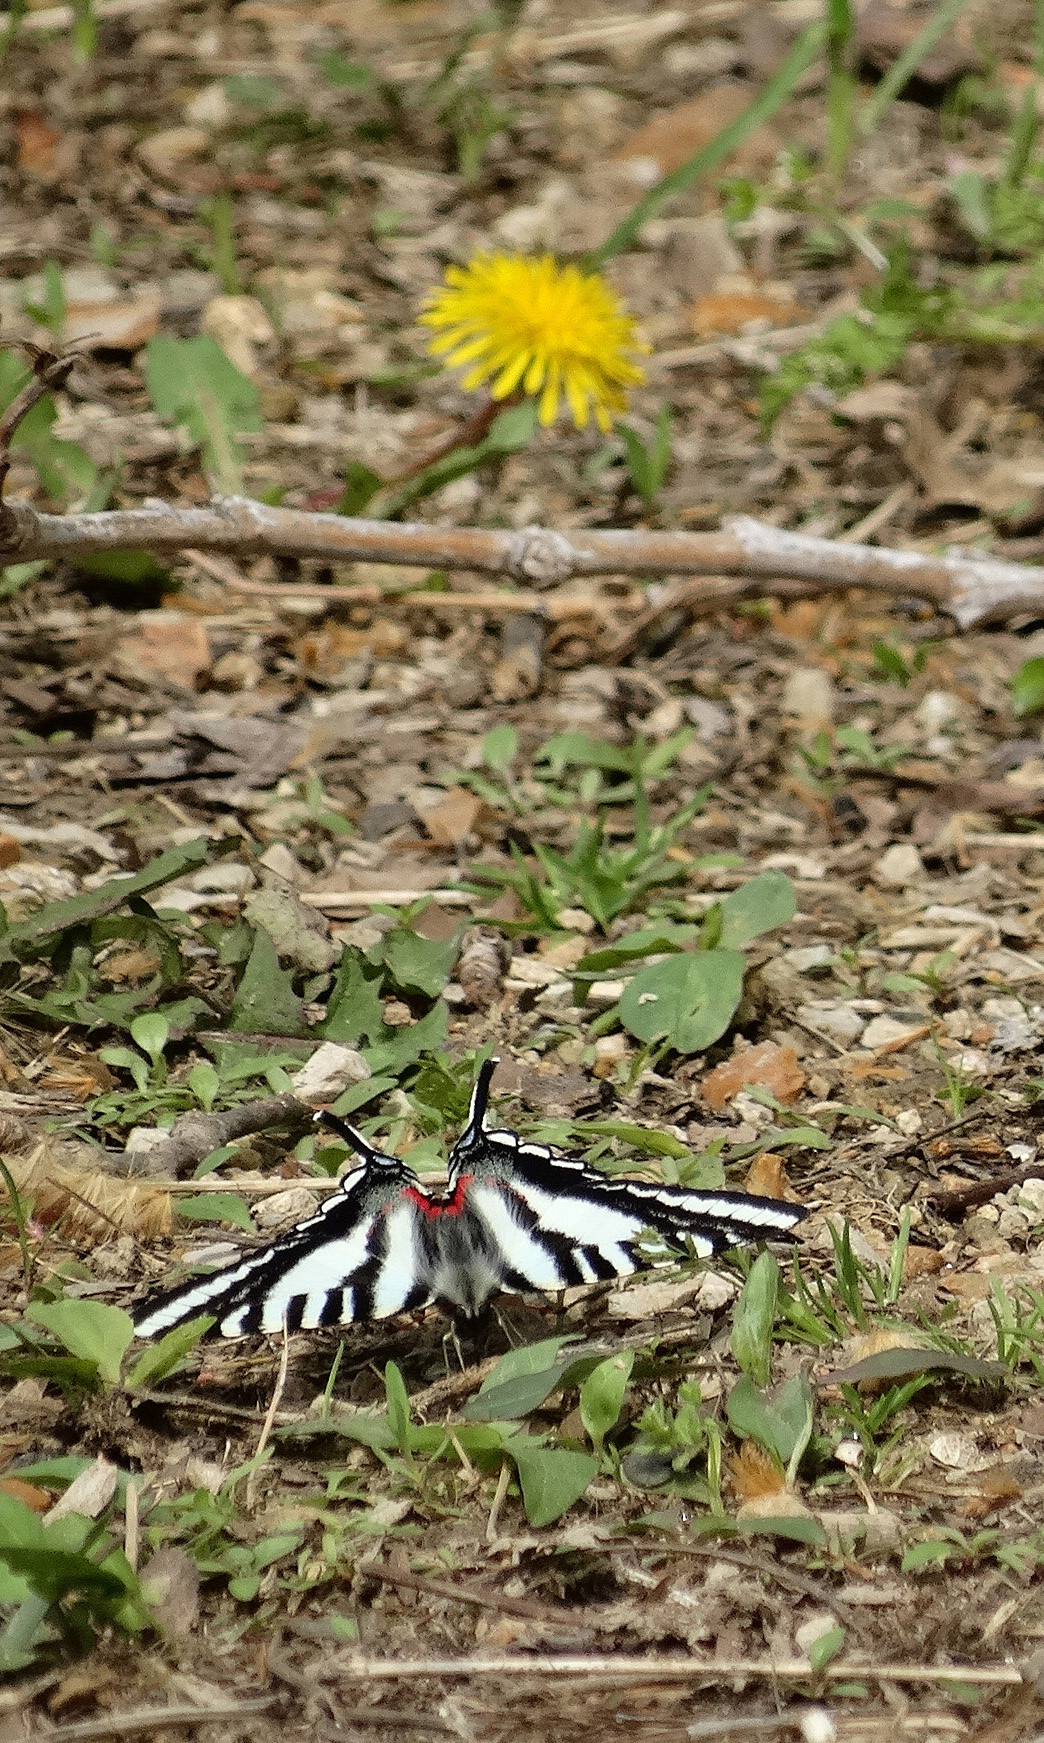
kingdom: Animalia
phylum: Arthropoda
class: Insecta
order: Lepidoptera
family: Papilionidae
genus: Protographium
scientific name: Protographium marcellus
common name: Zebra swallowtail
